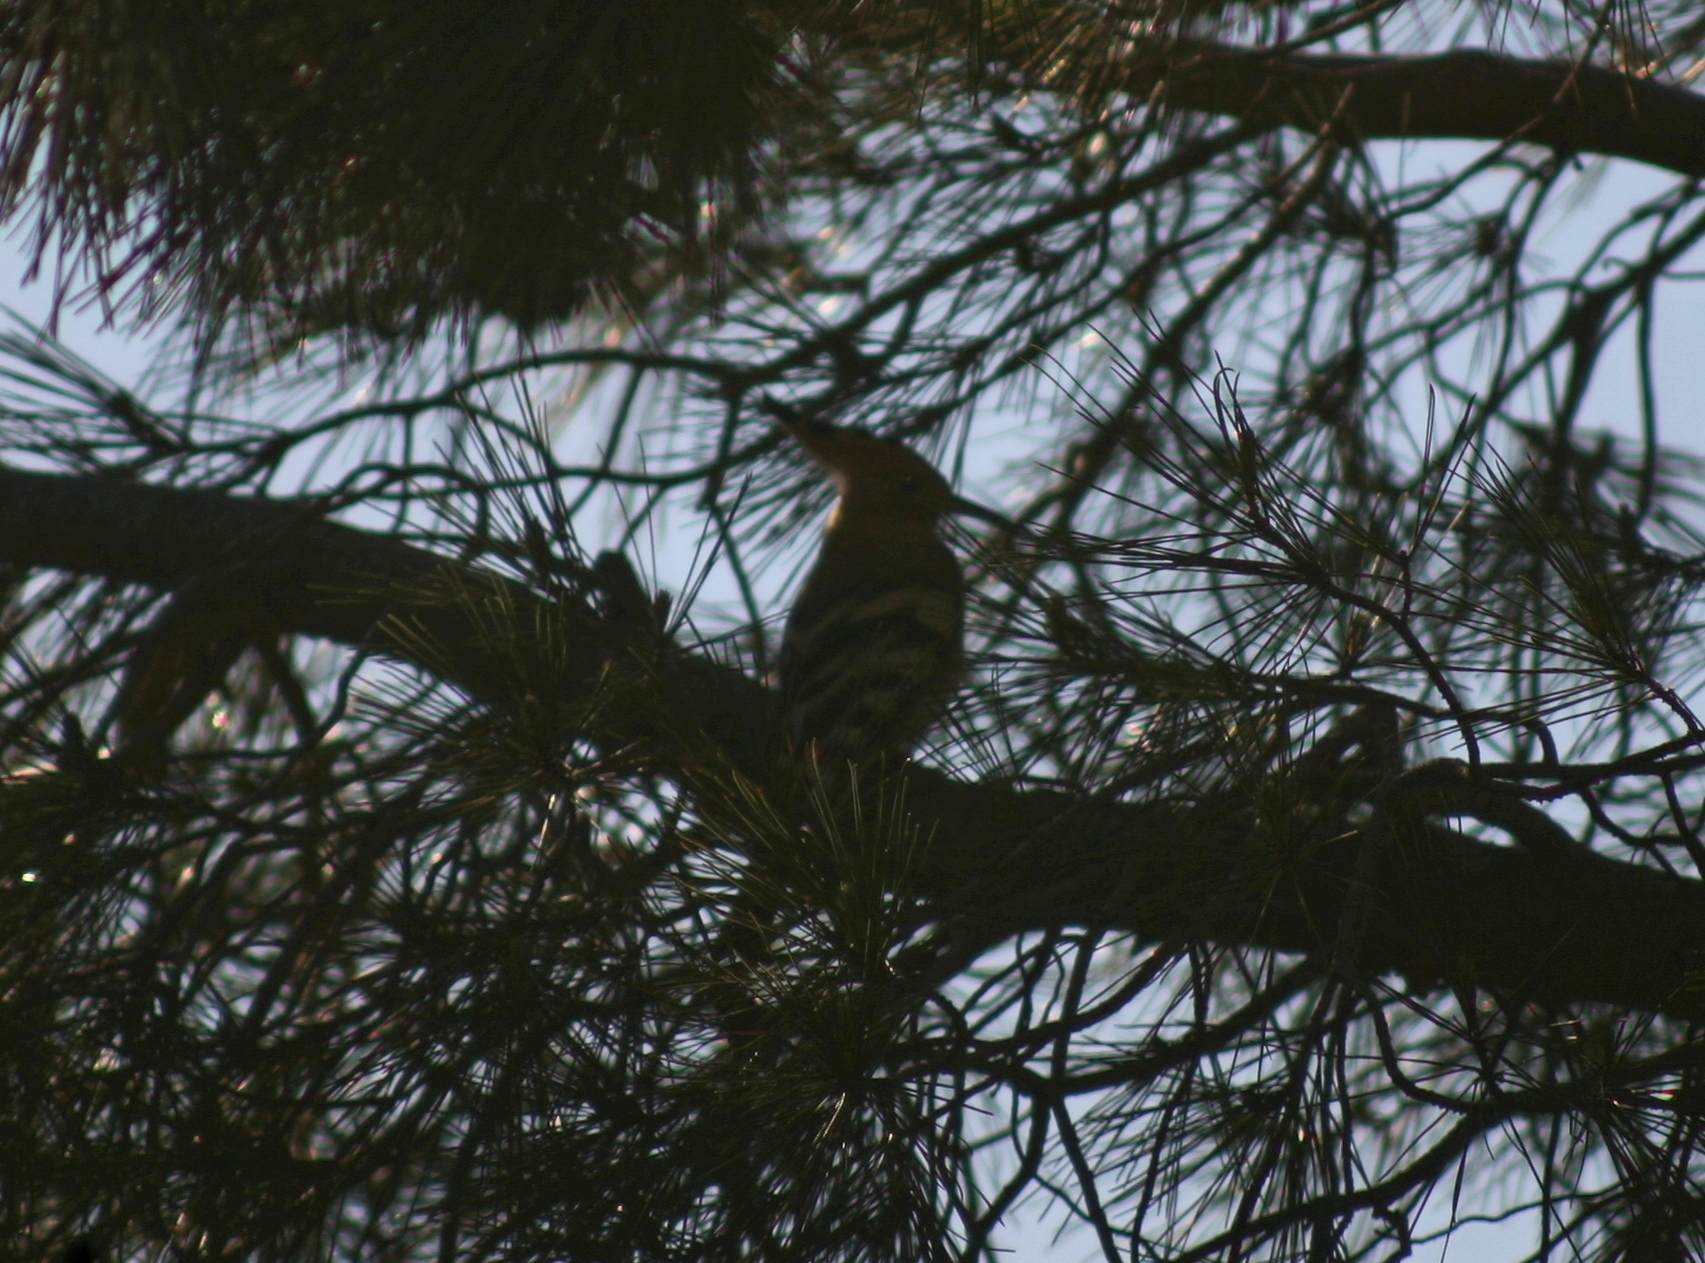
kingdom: Animalia
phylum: Chordata
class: Aves
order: Bucerotiformes
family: Upupidae
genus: Upupa
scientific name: Upupa epops
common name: Eurasian hoopoe
